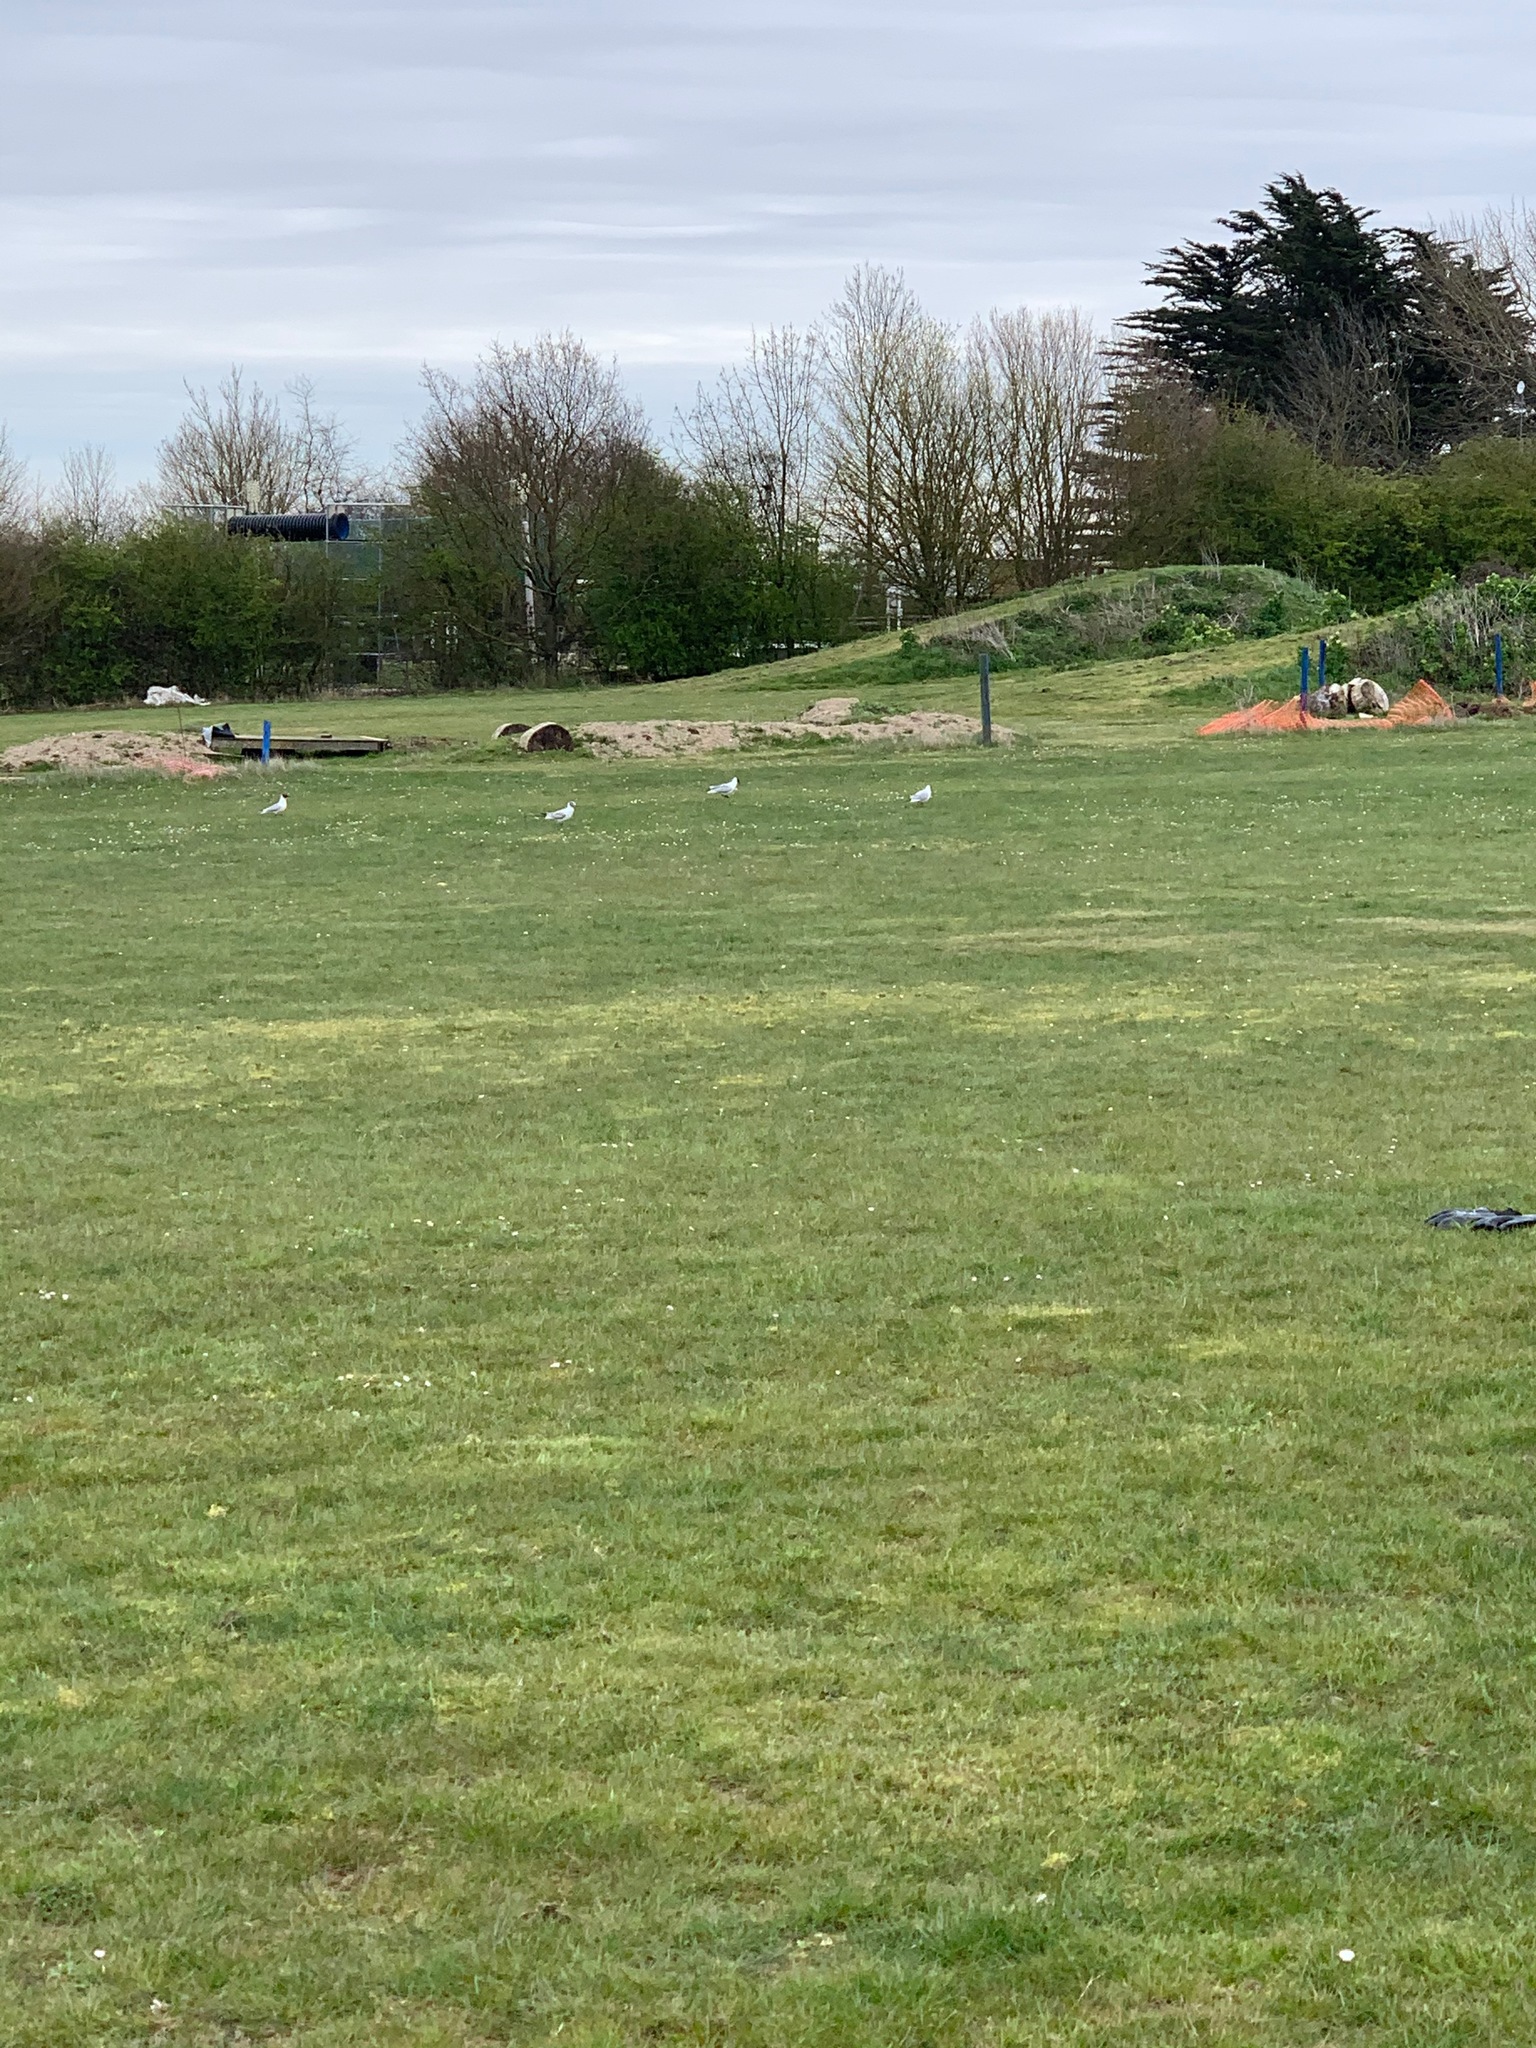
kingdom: Animalia
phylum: Chordata
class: Aves
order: Charadriiformes
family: Laridae
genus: Chroicocephalus
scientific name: Chroicocephalus ridibundus
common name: Black-headed gull
